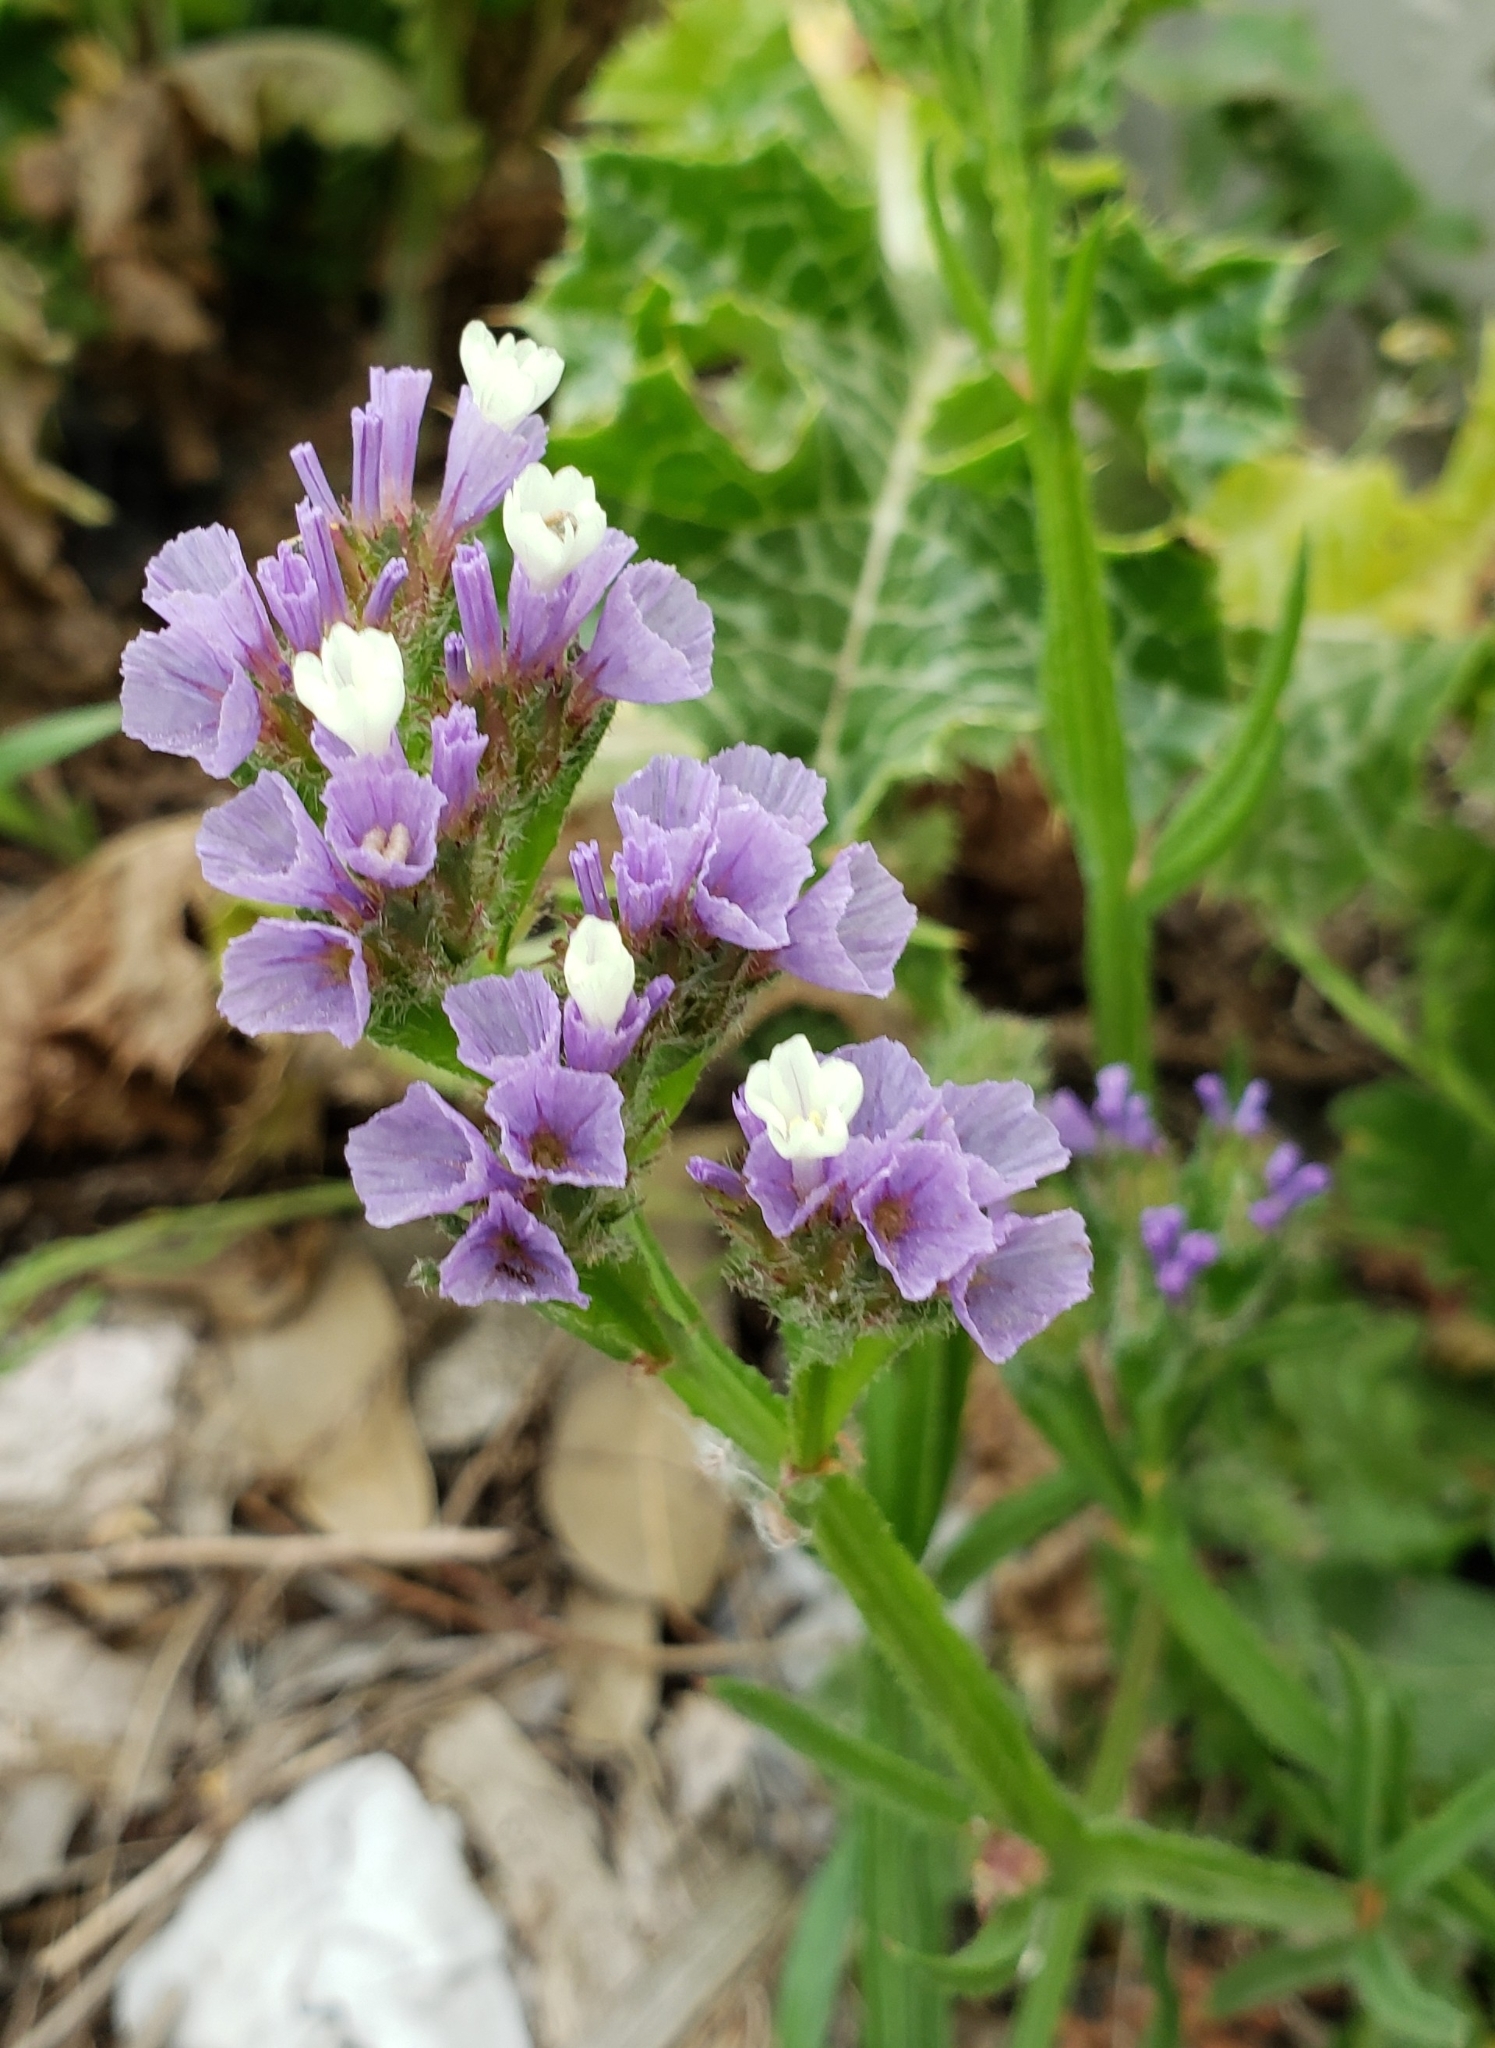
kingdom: Plantae
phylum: Tracheophyta
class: Magnoliopsida
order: Caryophyllales
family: Plumbaginaceae
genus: Limonium
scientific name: Limonium sinuatum
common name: Statice
